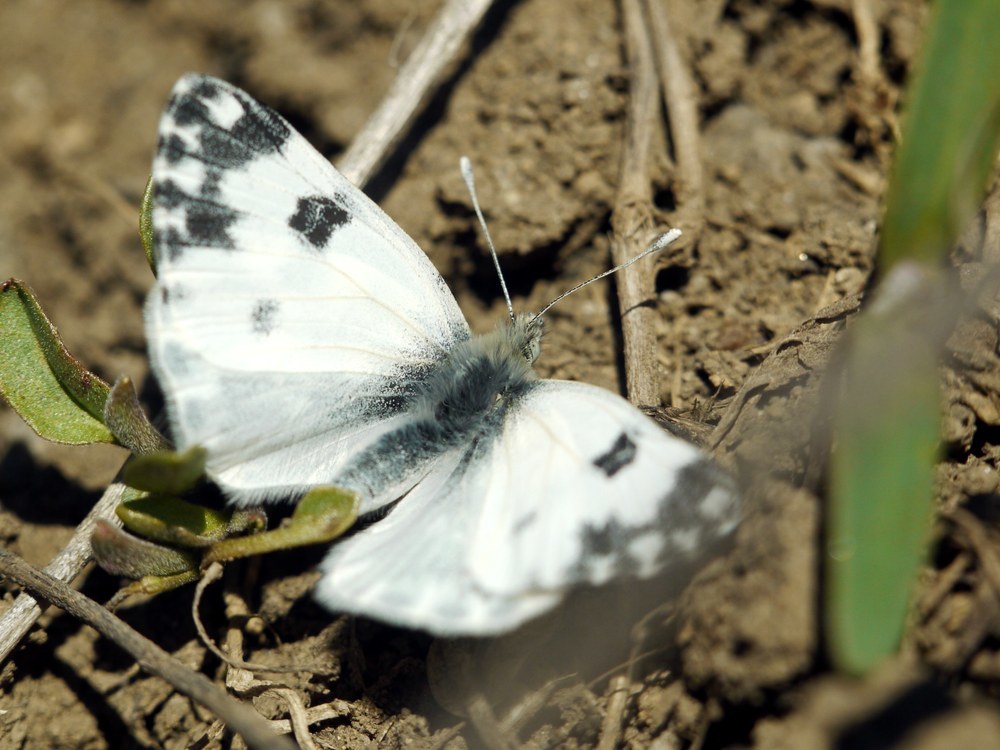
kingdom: Animalia
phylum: Arthropoda
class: Insecta
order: Lepidoptera
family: Pieridae
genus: Pontia
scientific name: Pontia edusa
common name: Eastern bath white
